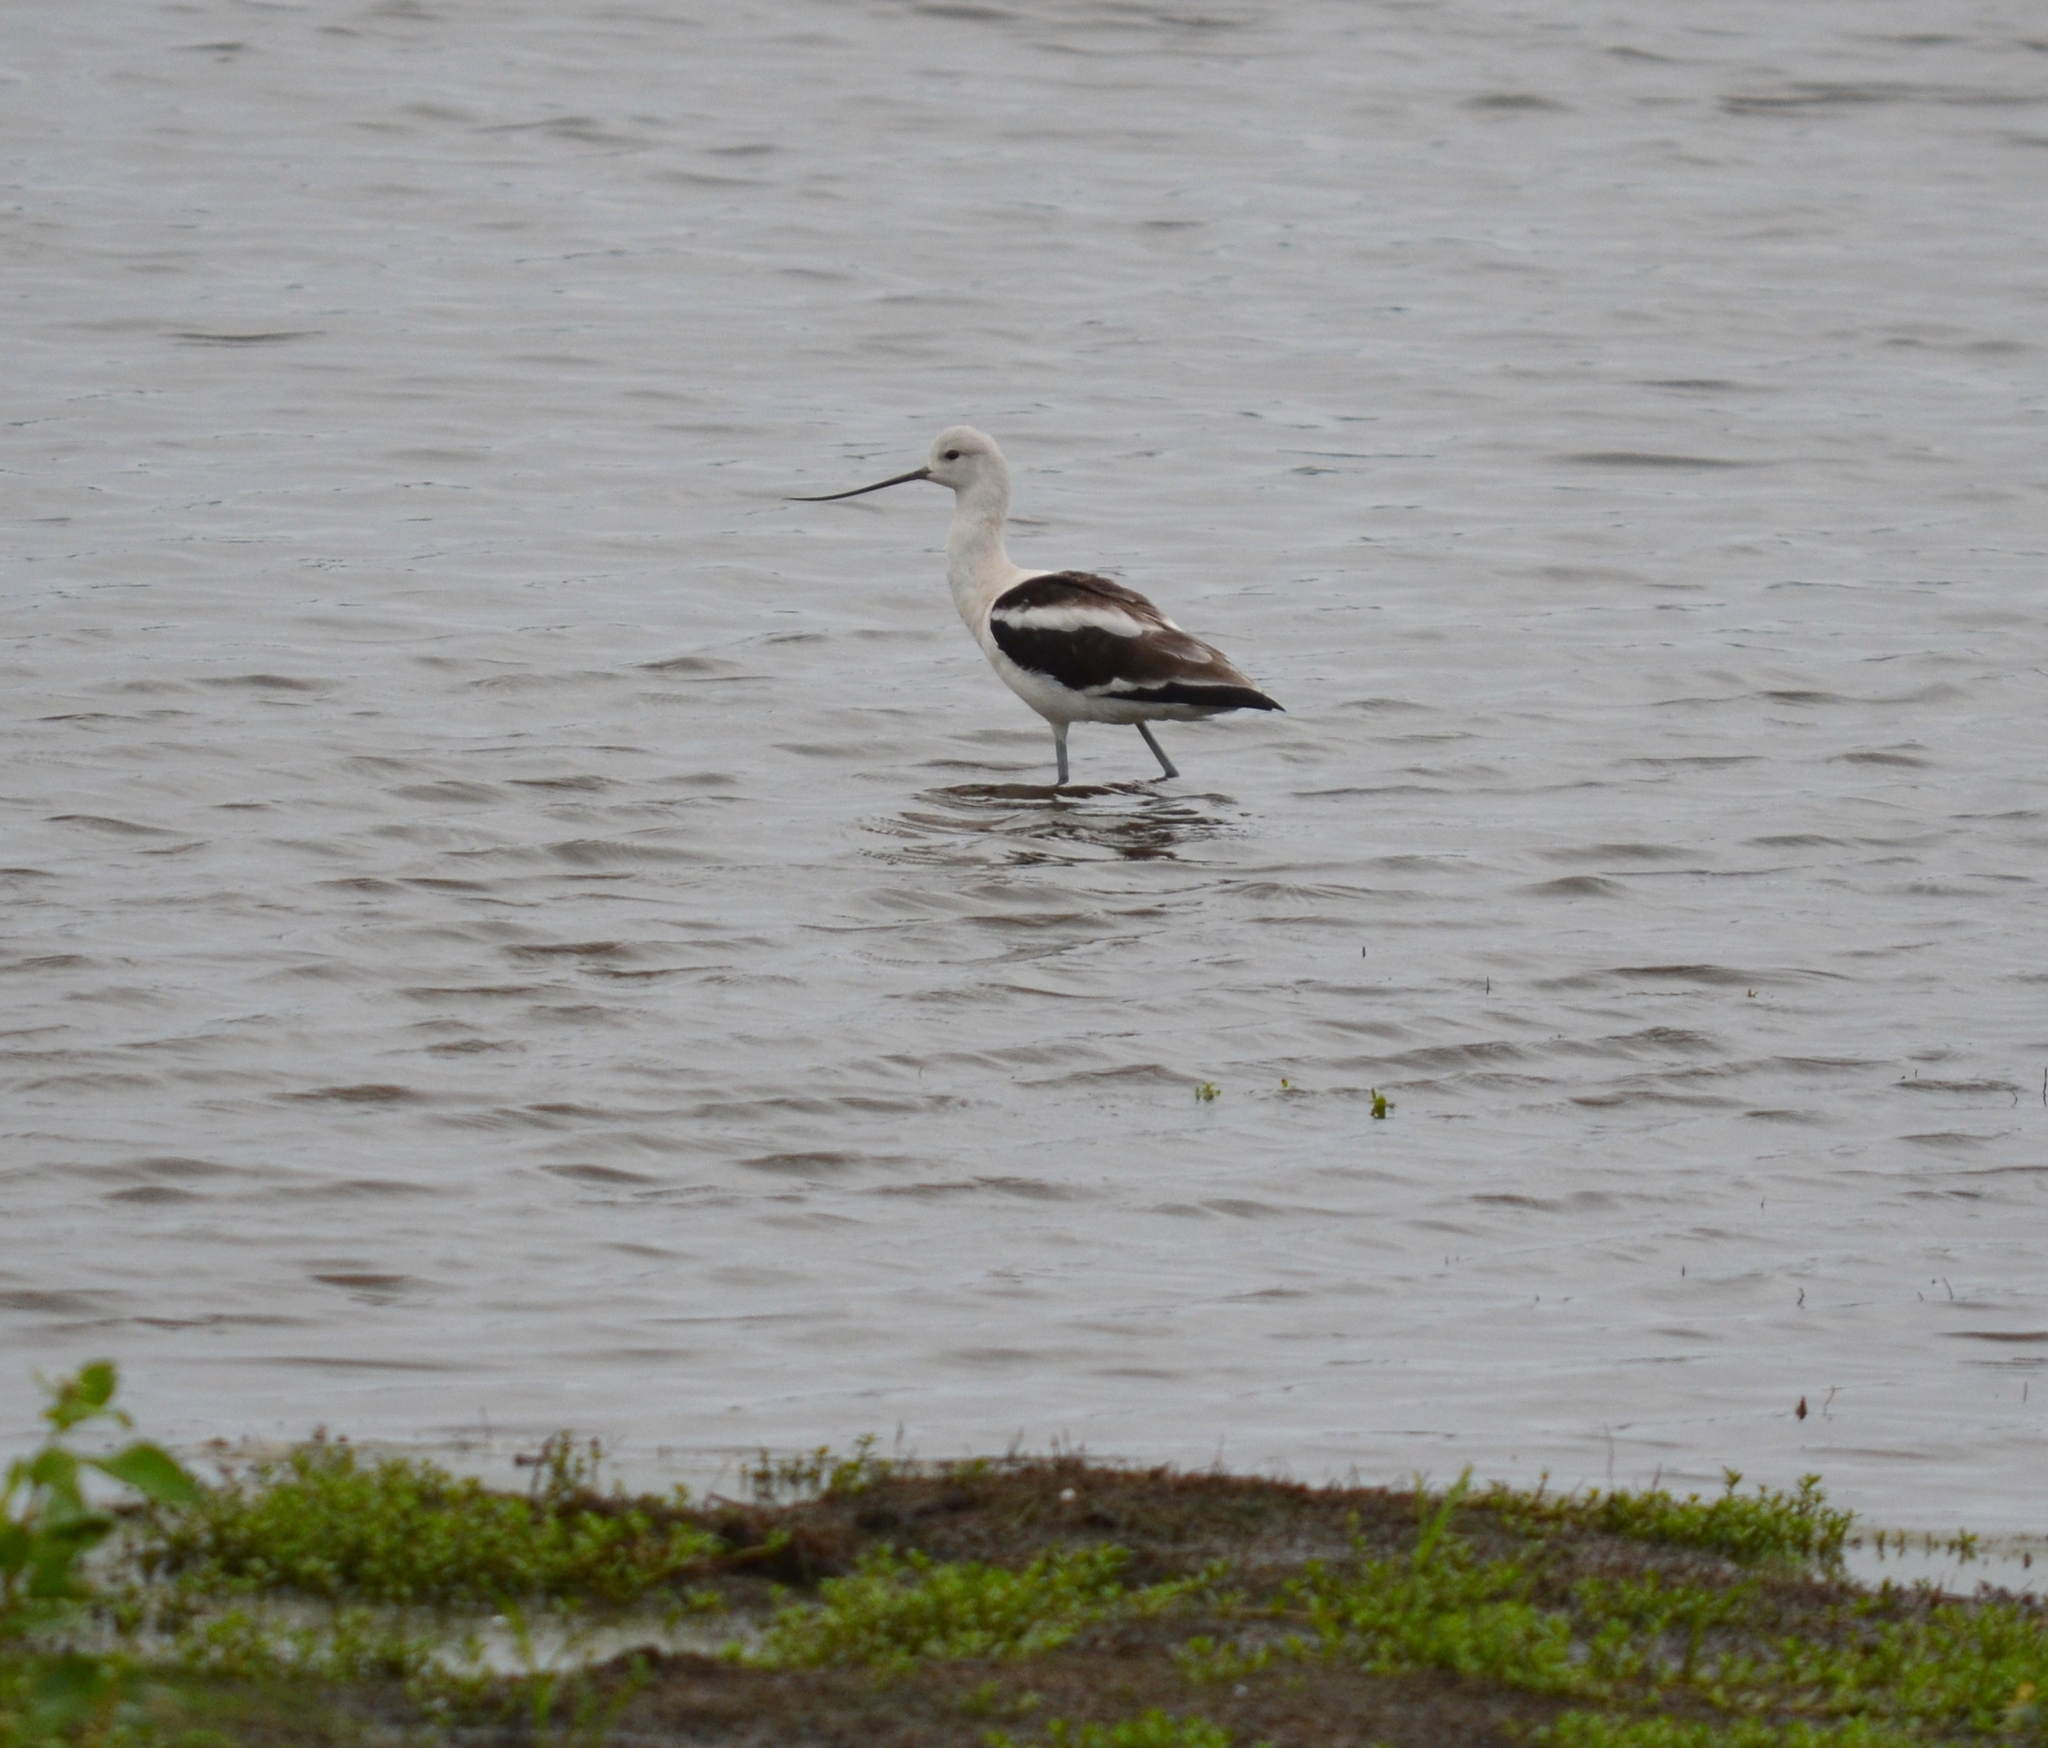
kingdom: Animalia
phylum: Chordata
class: Aves
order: Charadriiformes
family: Recurvirostridae
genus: Recurvirostra
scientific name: Recurvirostra americana
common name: American avocet
